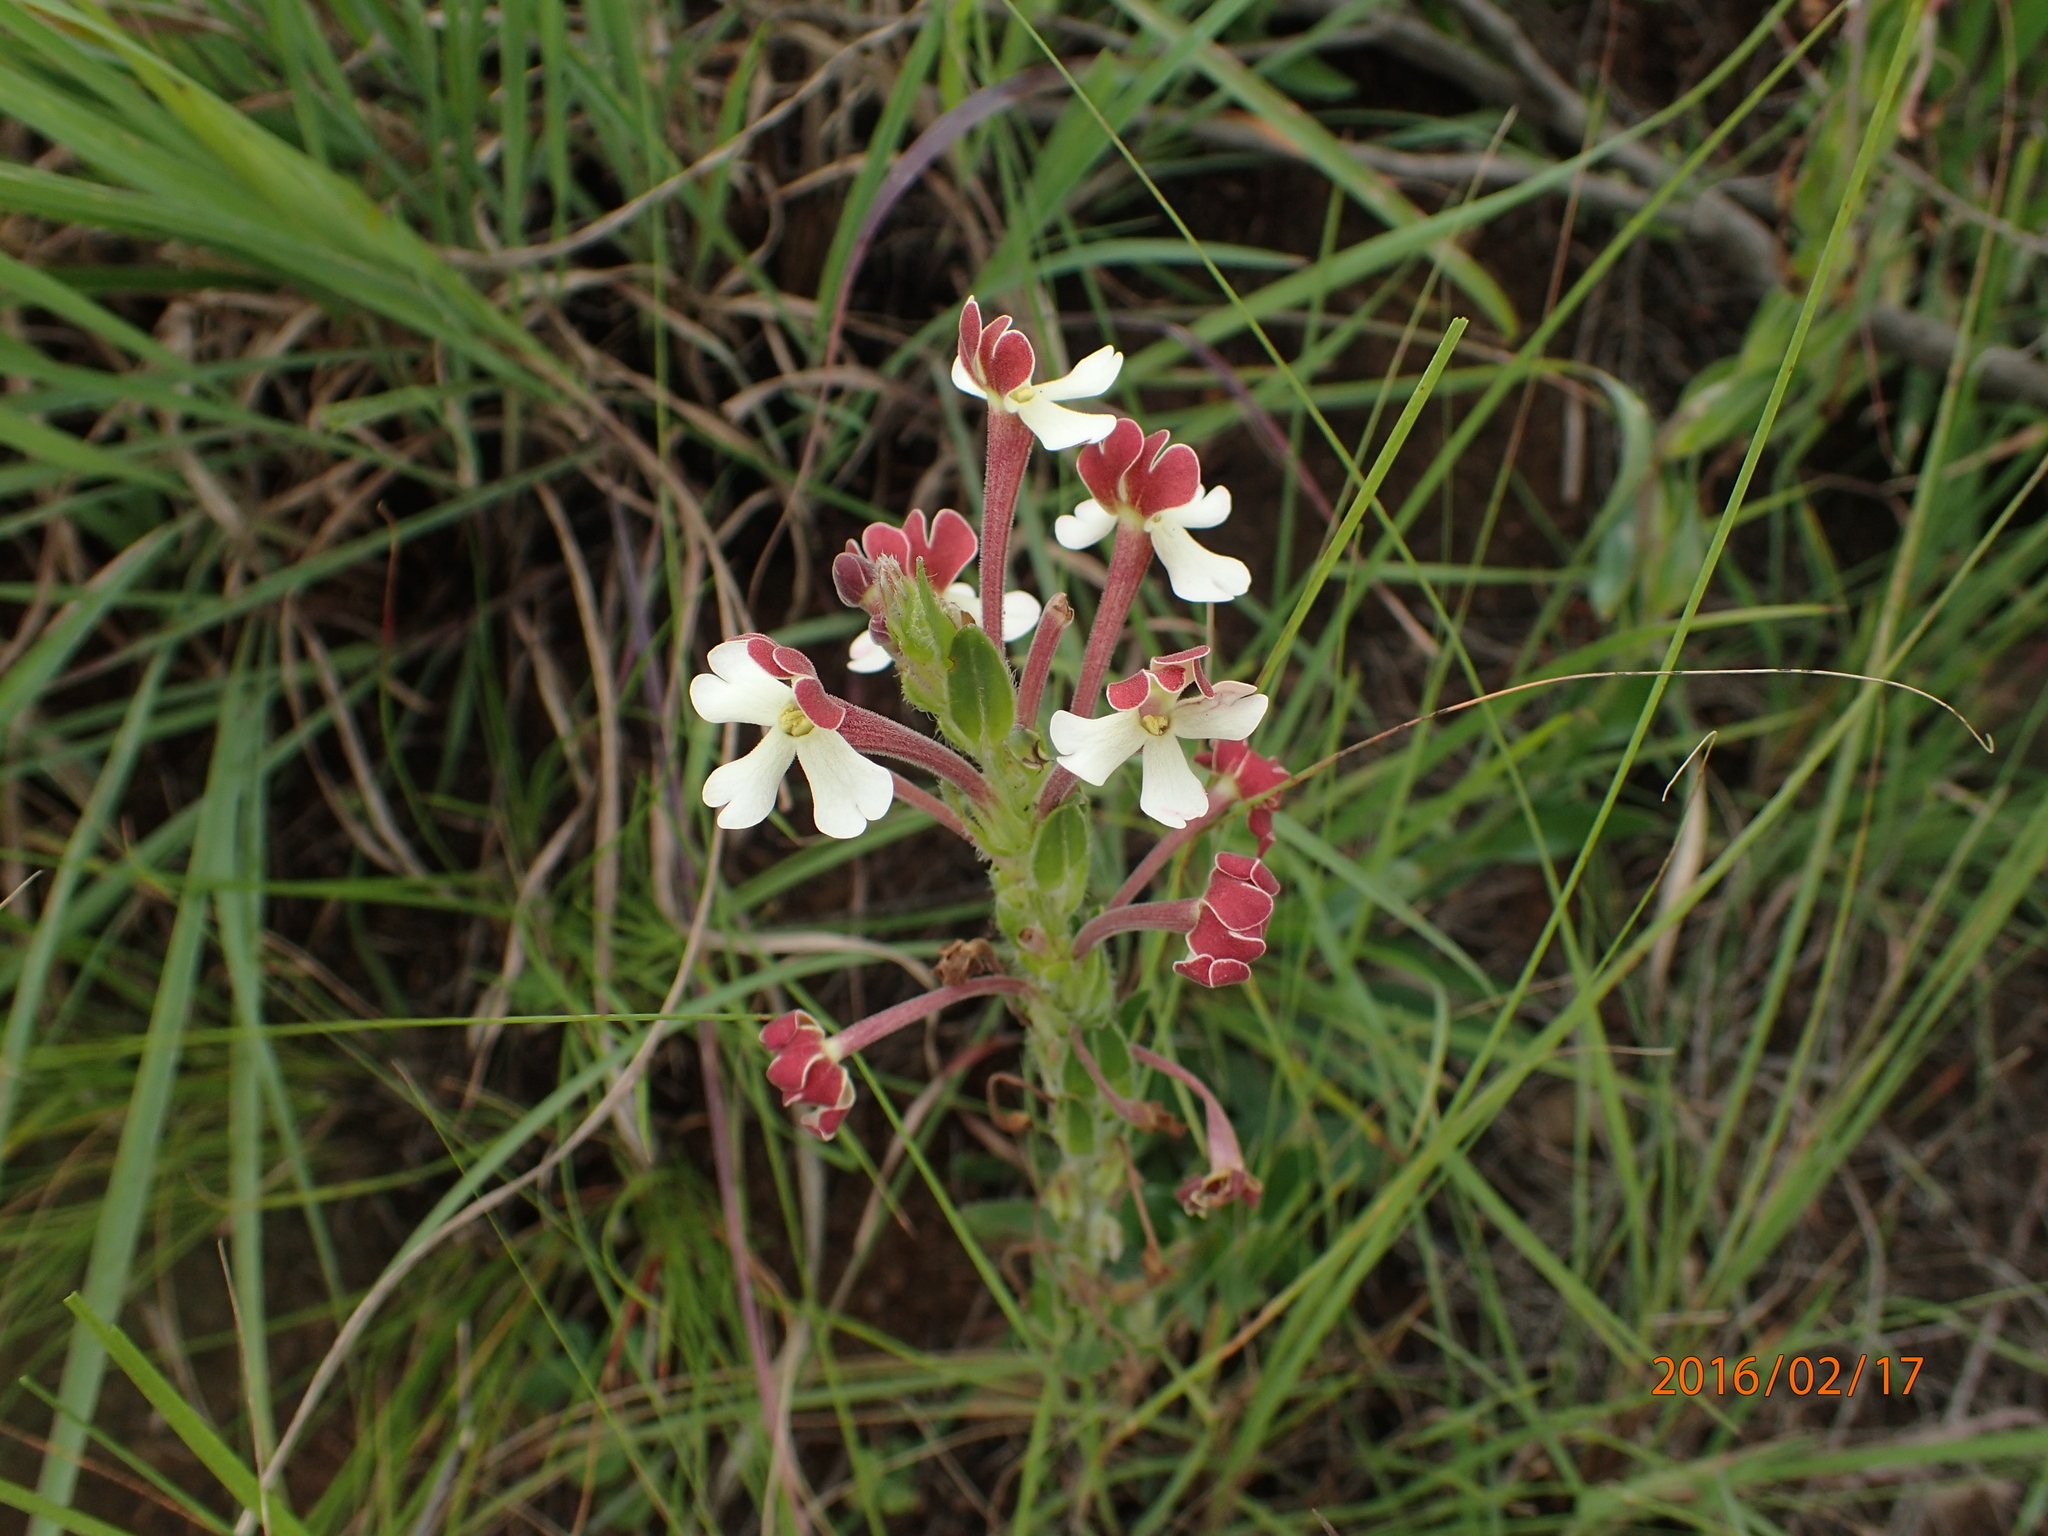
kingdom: Plantae
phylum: Tracheophyta
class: Magnoliopsida
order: Lamiales
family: Scrophulariaceae
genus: Zaluzianskya
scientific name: Zaluzianskya microsiphon
